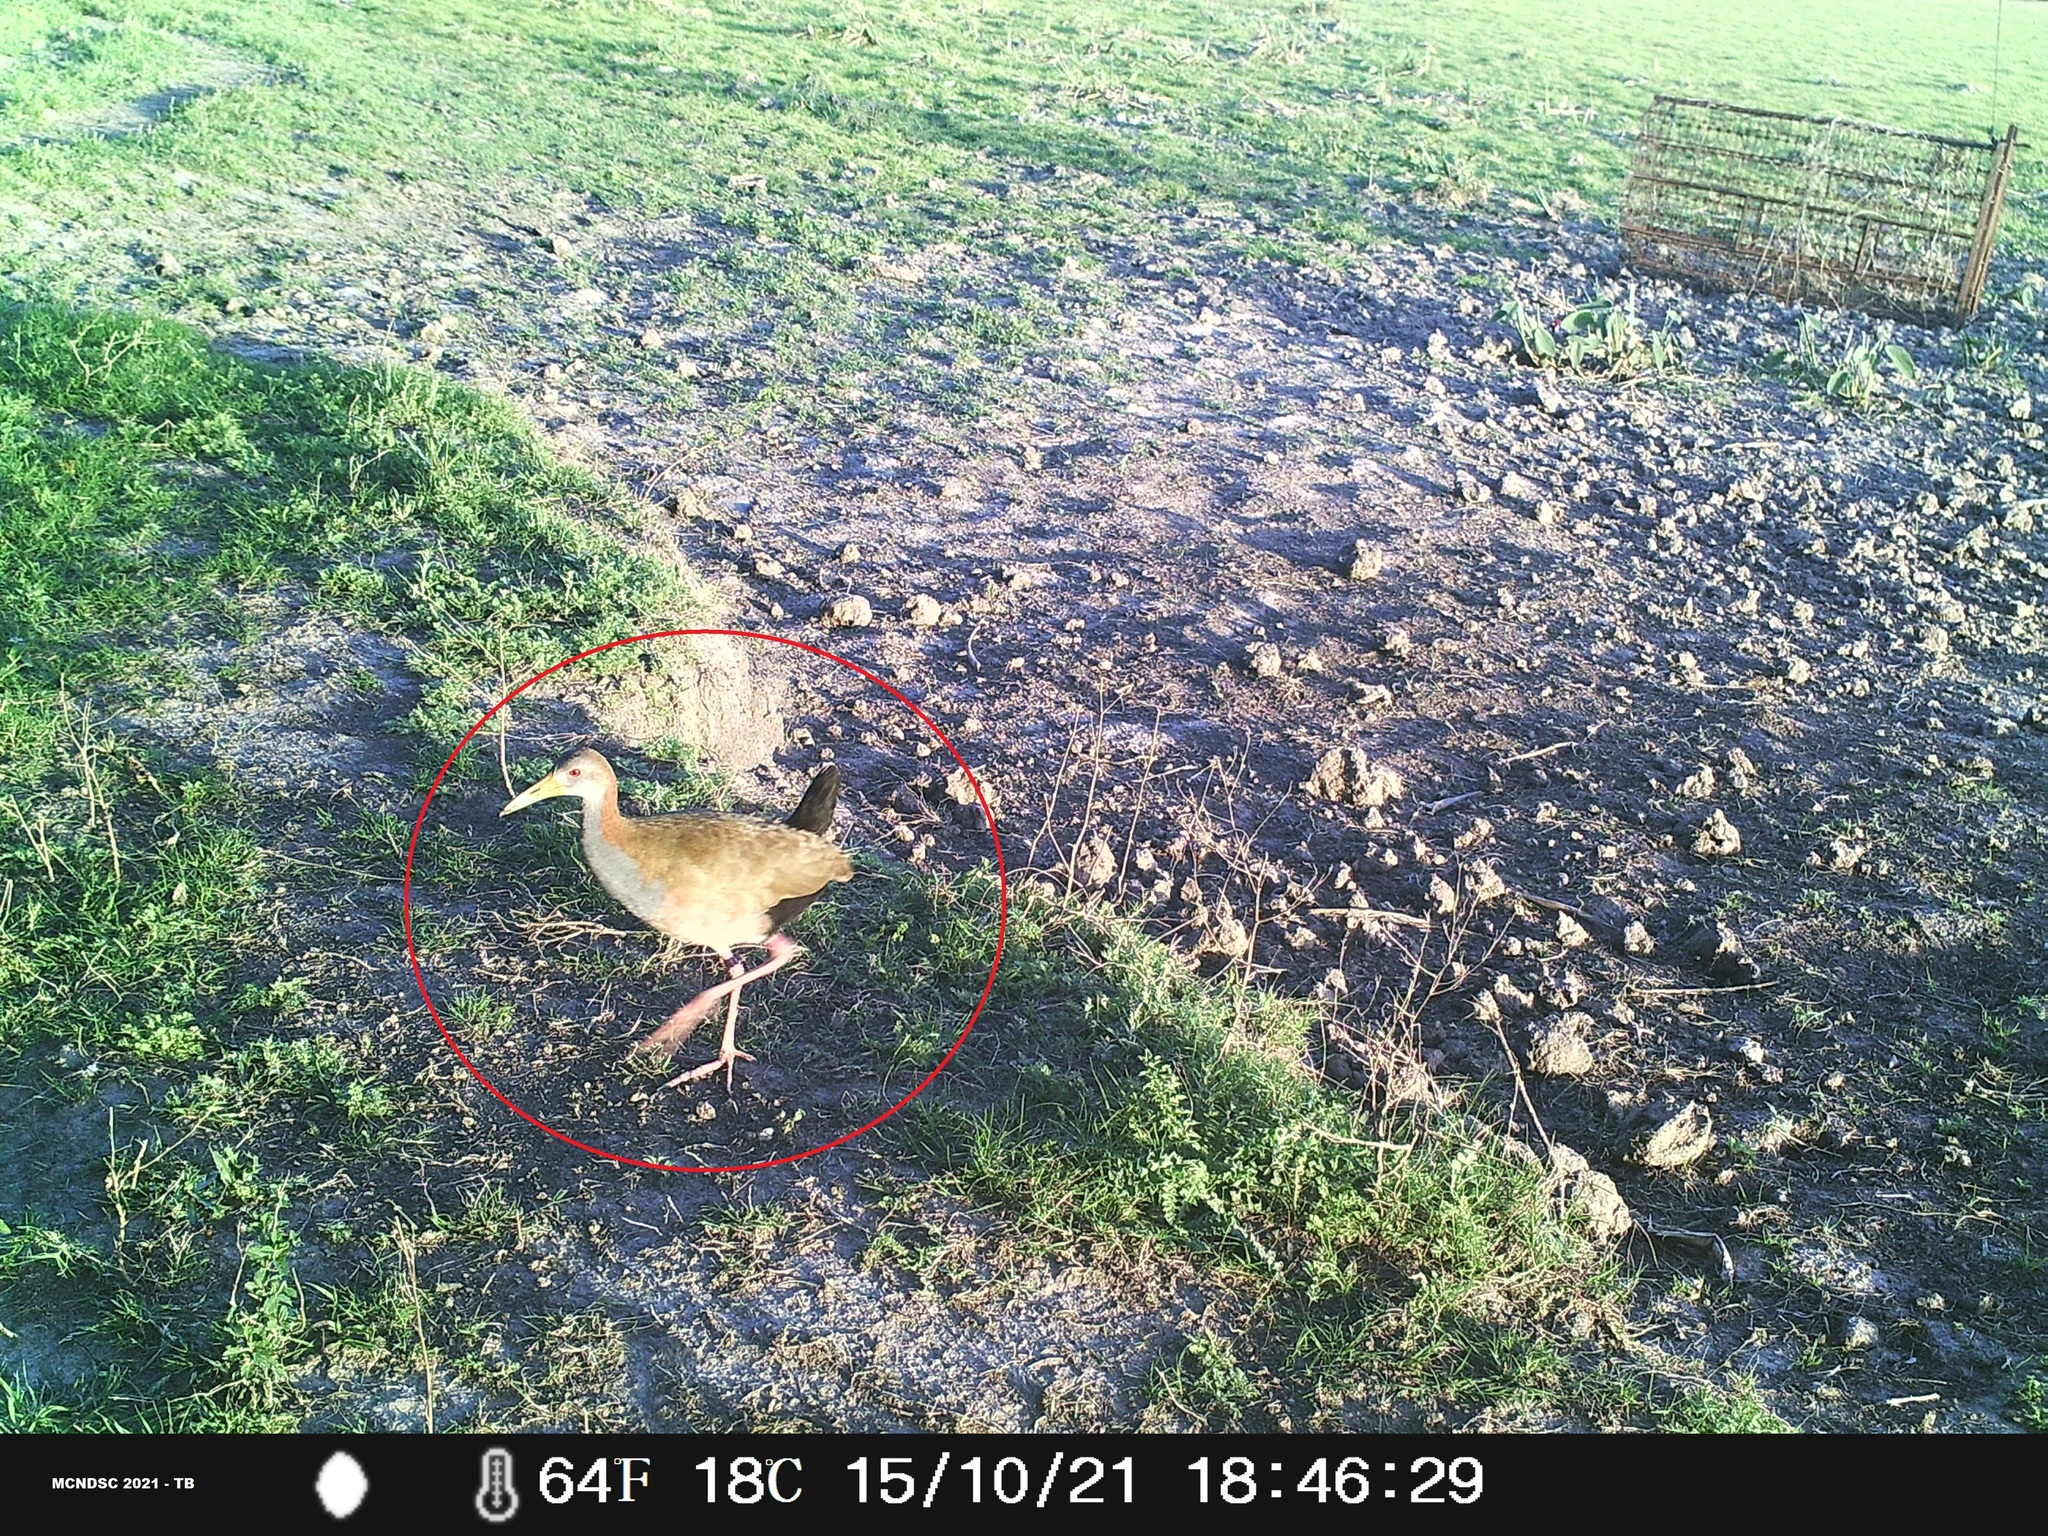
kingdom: Animalia
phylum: Chordata
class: Aves
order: Gruiformes
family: Rallidae
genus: Aramides
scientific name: Aramides ypecaha
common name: Giant wood rail
